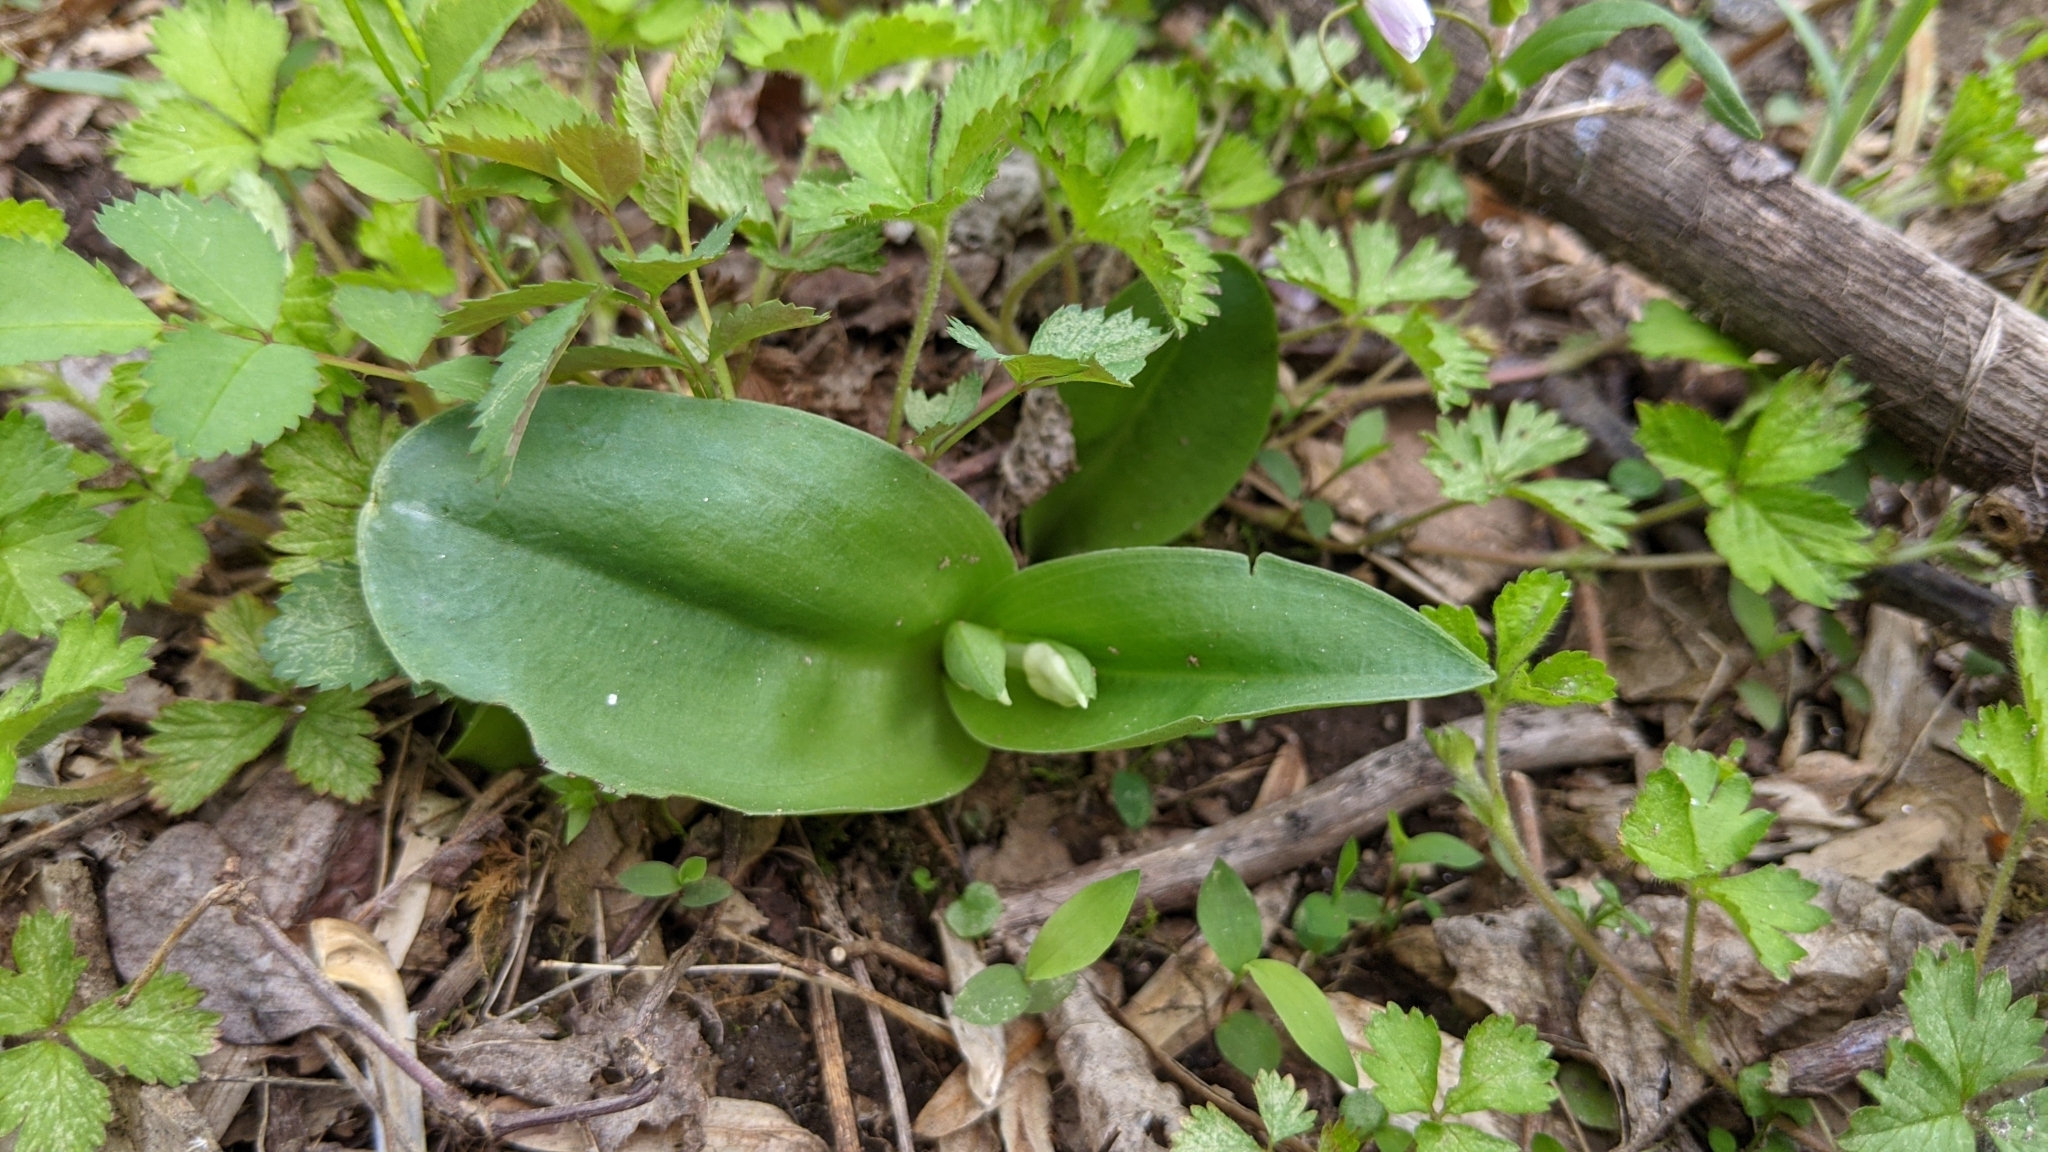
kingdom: Plantae
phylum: Tracheophyta
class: Liliopsida
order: Asparagales
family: Orchidaceae
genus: Galearis
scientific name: Galearis spectabilis
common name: Purple-hooded orchis
